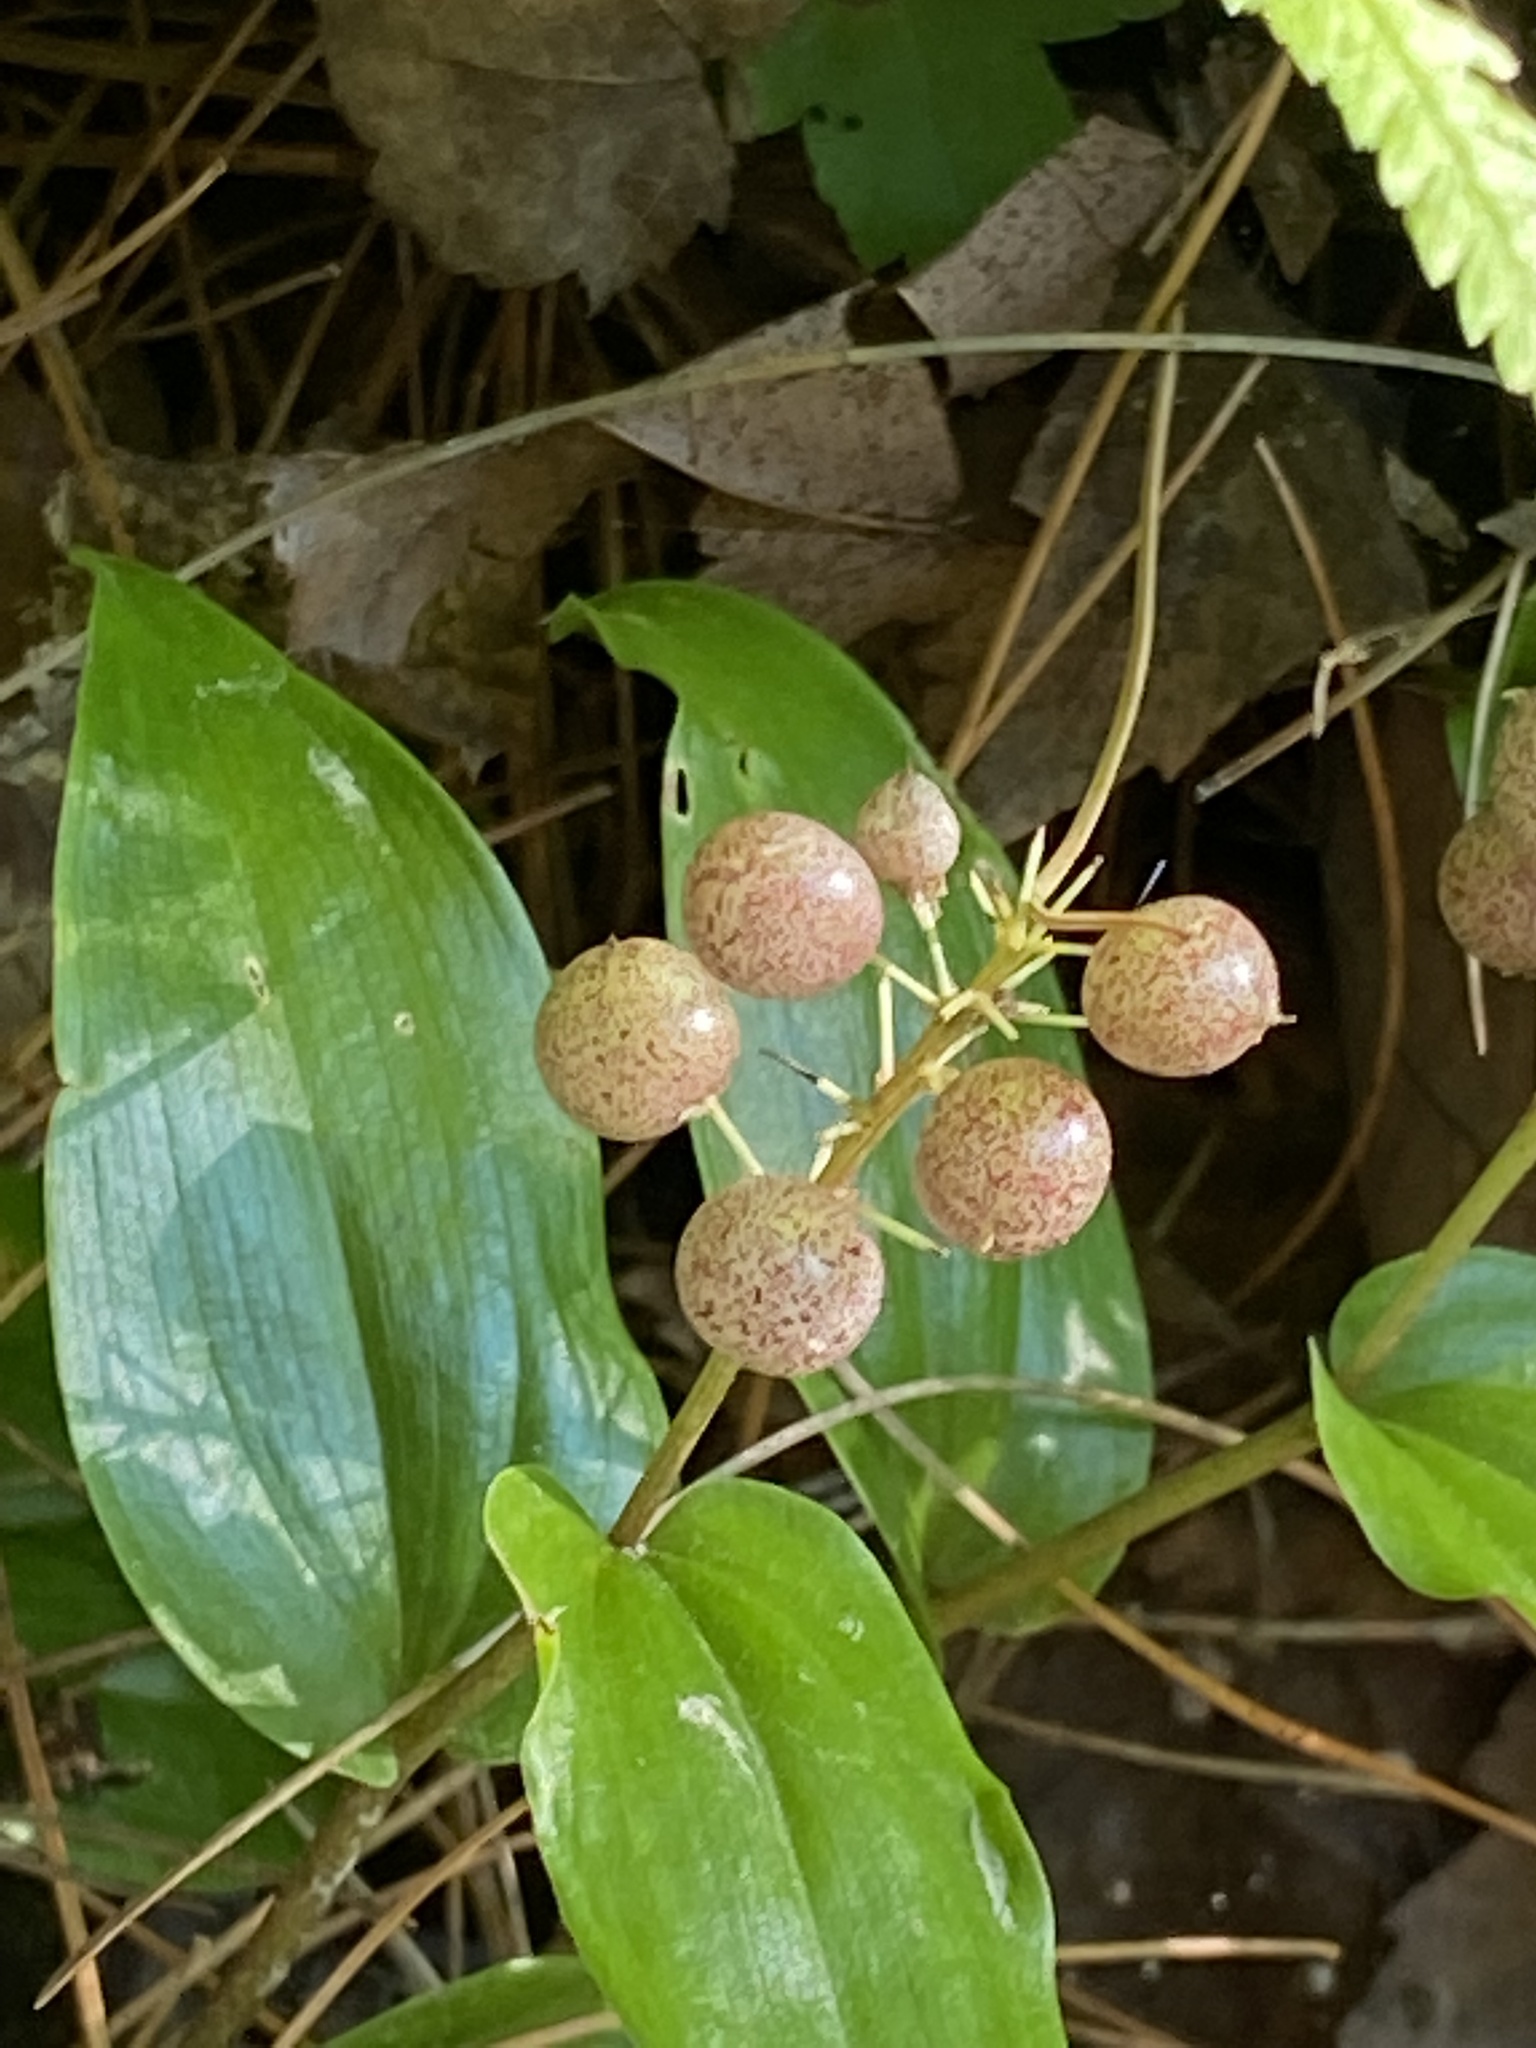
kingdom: Plantae
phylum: Tracheophyta
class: Liliopsida
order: Asparagales
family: Asparagaceae
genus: Maianthemum
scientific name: Maianthemum canadense
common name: False lily-of-the-valley
